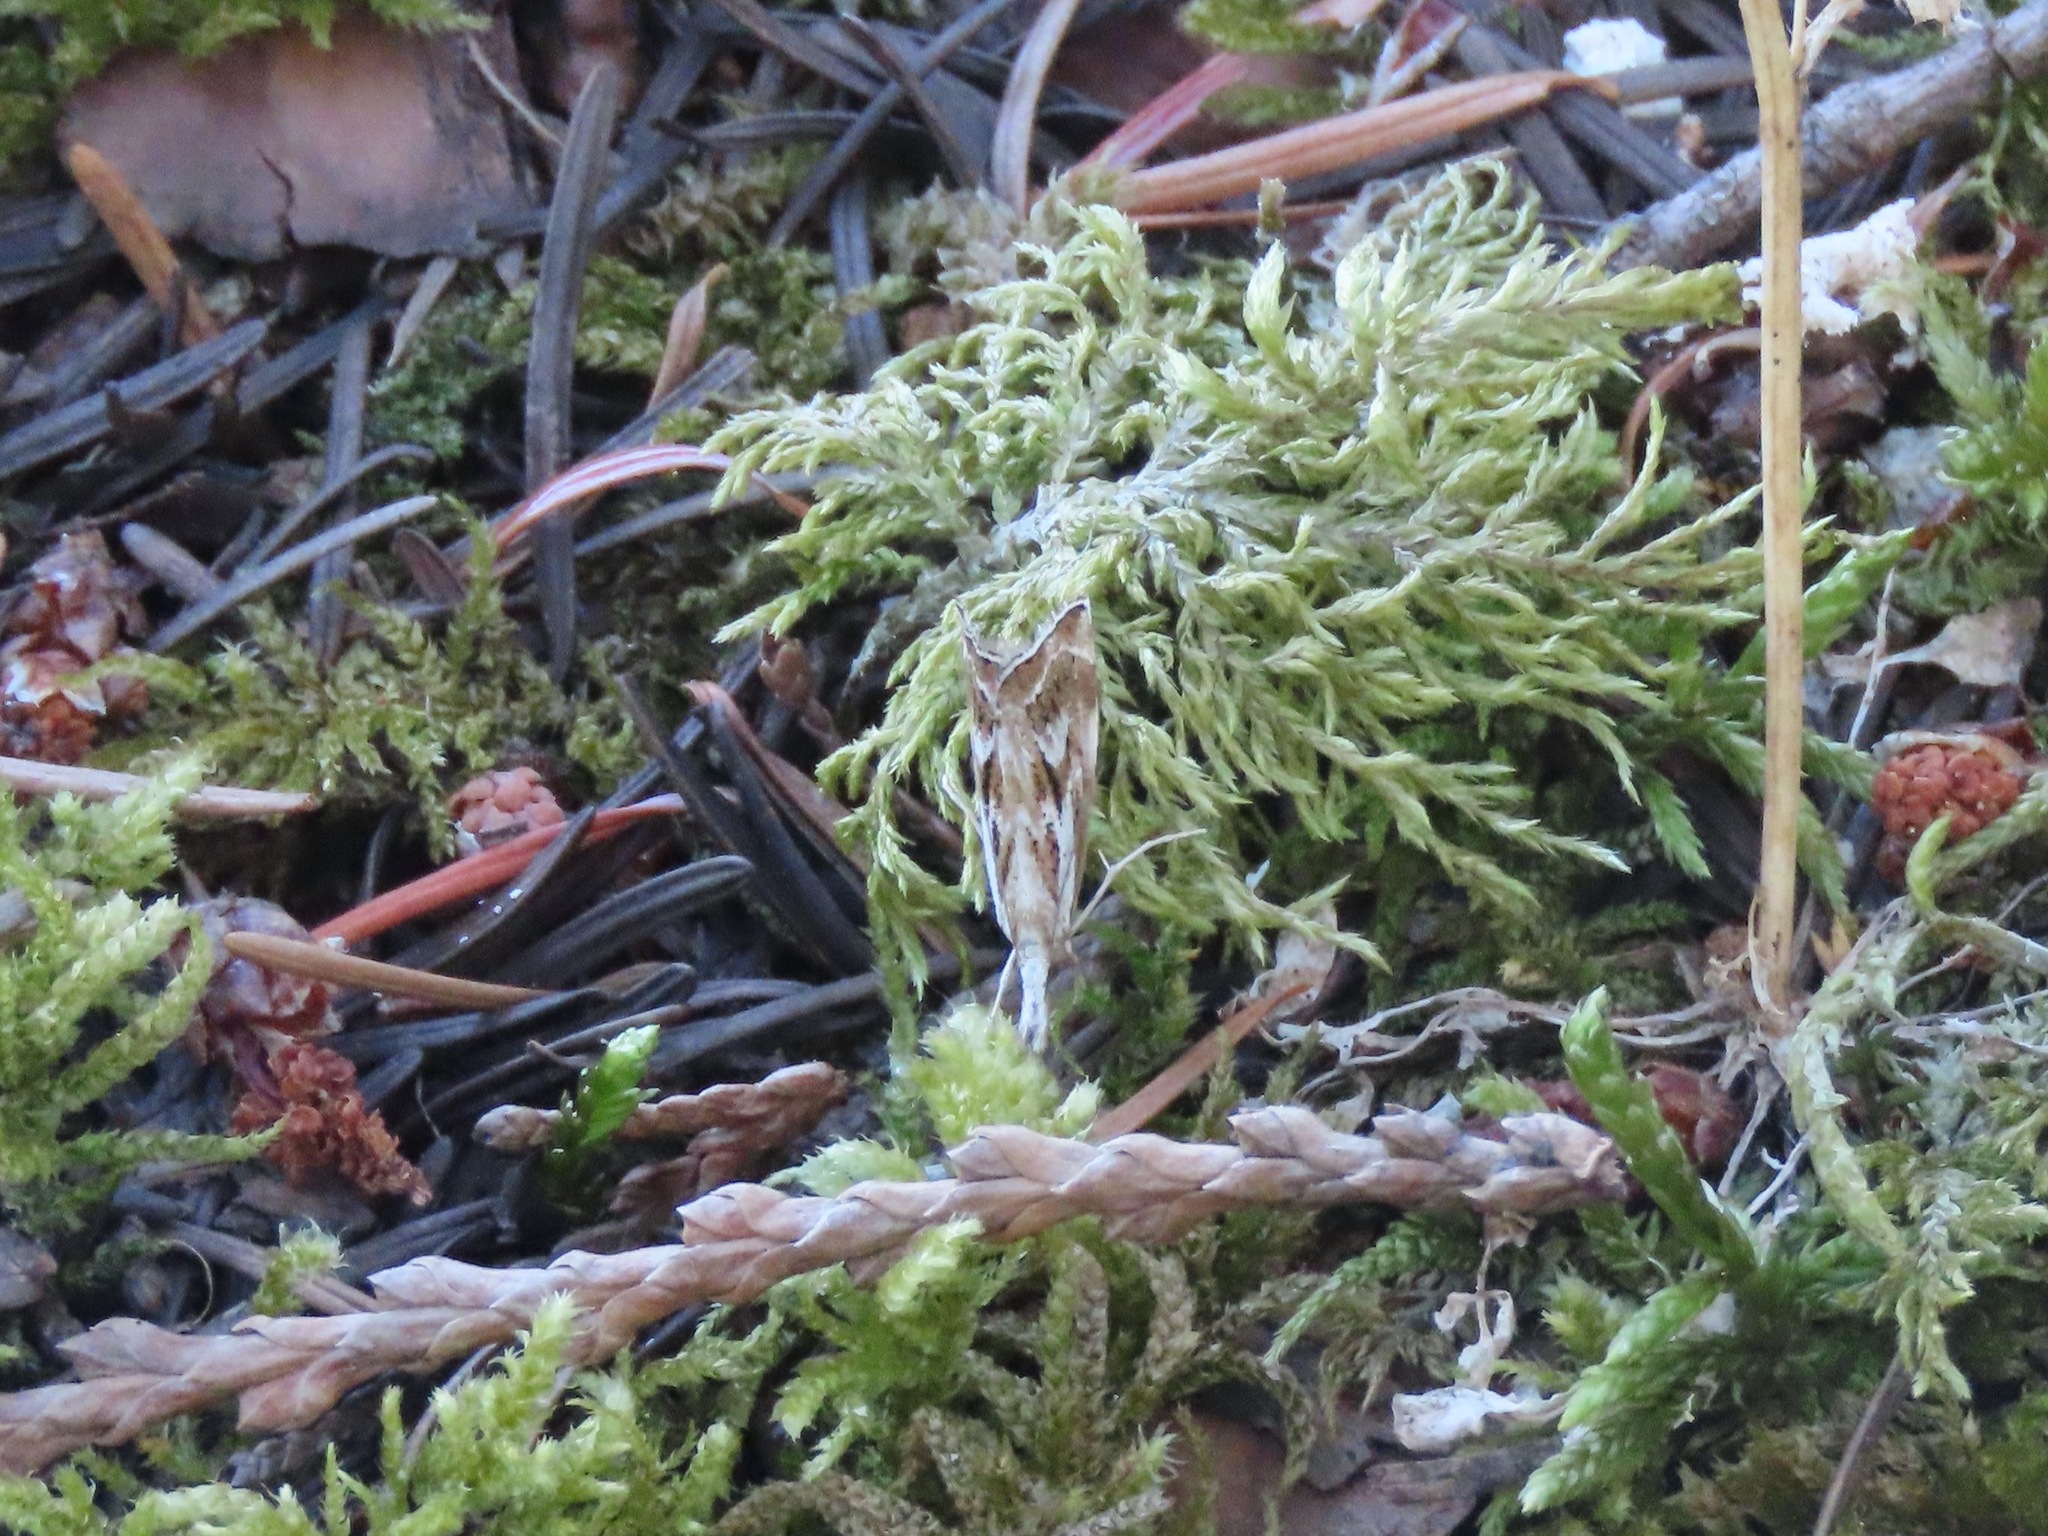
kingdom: Animalia
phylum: Arthropoda
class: Insecta
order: Lepidoptera
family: Crambidae
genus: Catoptria
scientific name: Catoptria oregonicus
